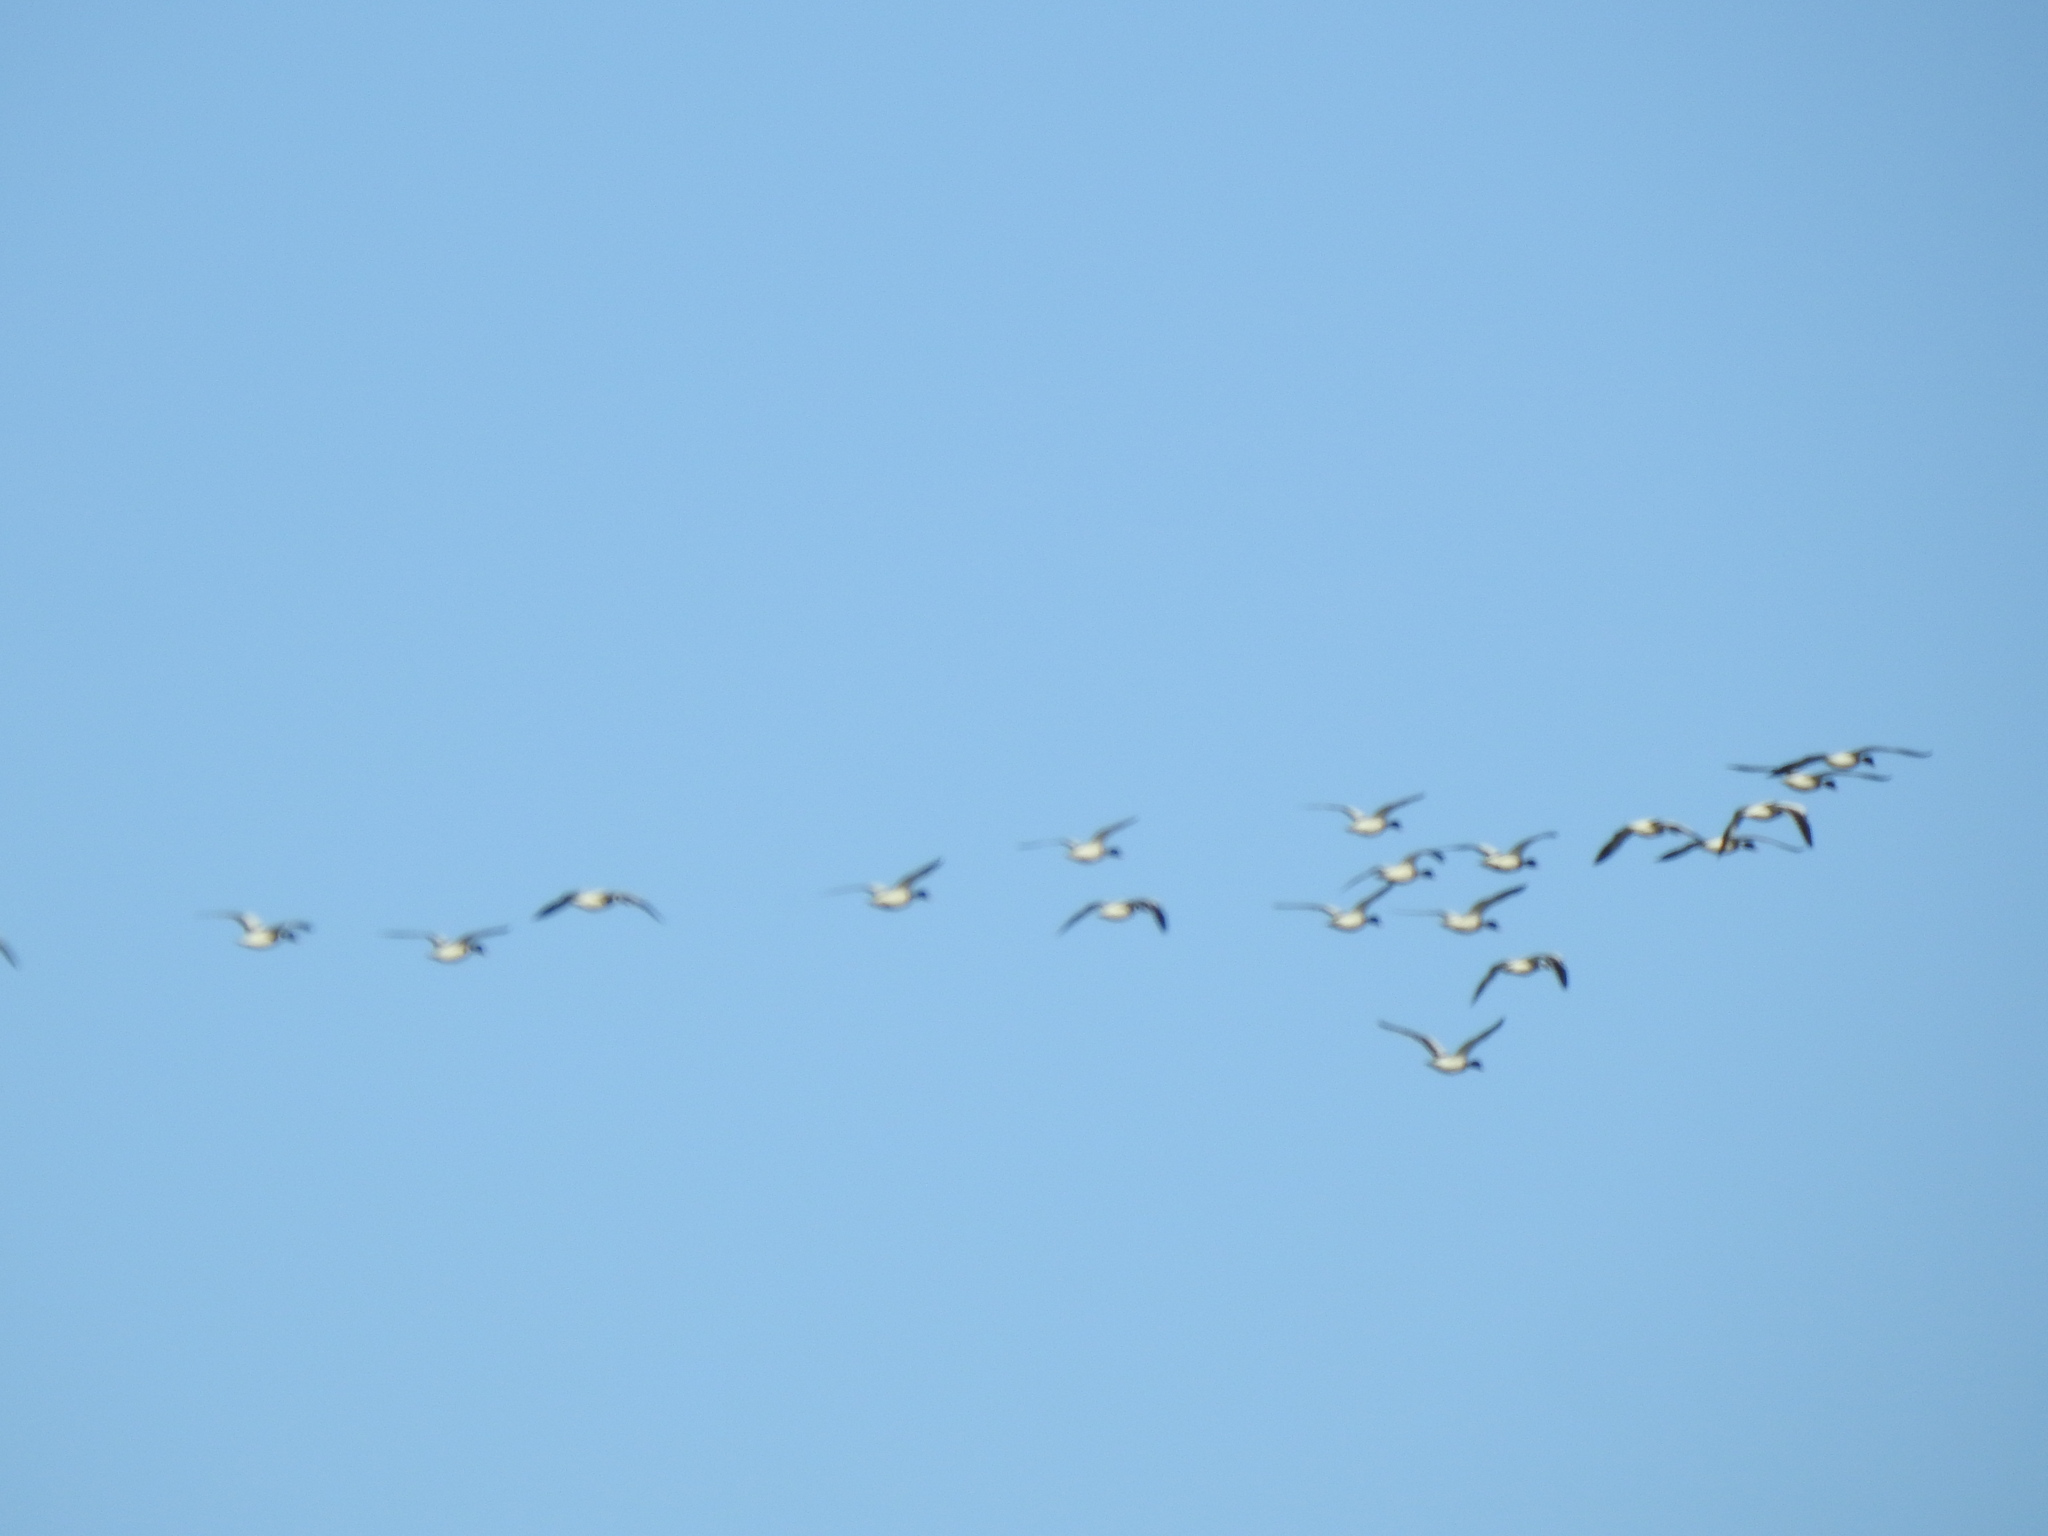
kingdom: Animalia
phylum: Chordata
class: Aves
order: Anseriformes
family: Anatidae
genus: Tadorna
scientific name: Tadorna tadorna
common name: Common shelduck
